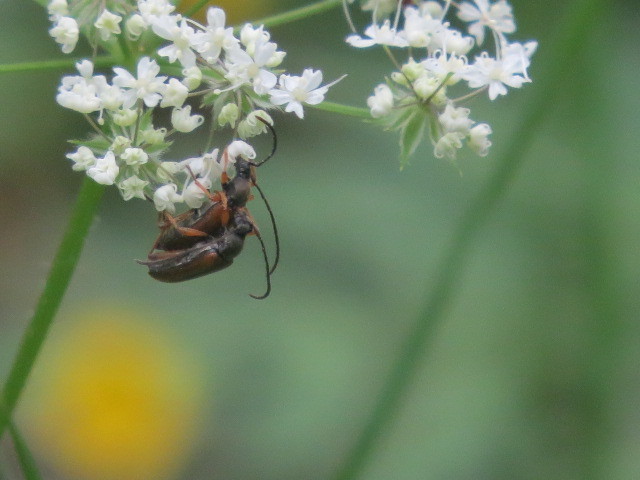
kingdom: Animalia
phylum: Arthropoda
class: Insecta
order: Coleoptera
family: Cerambycidae
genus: Alosterna
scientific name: Alosterna tabacicolor
